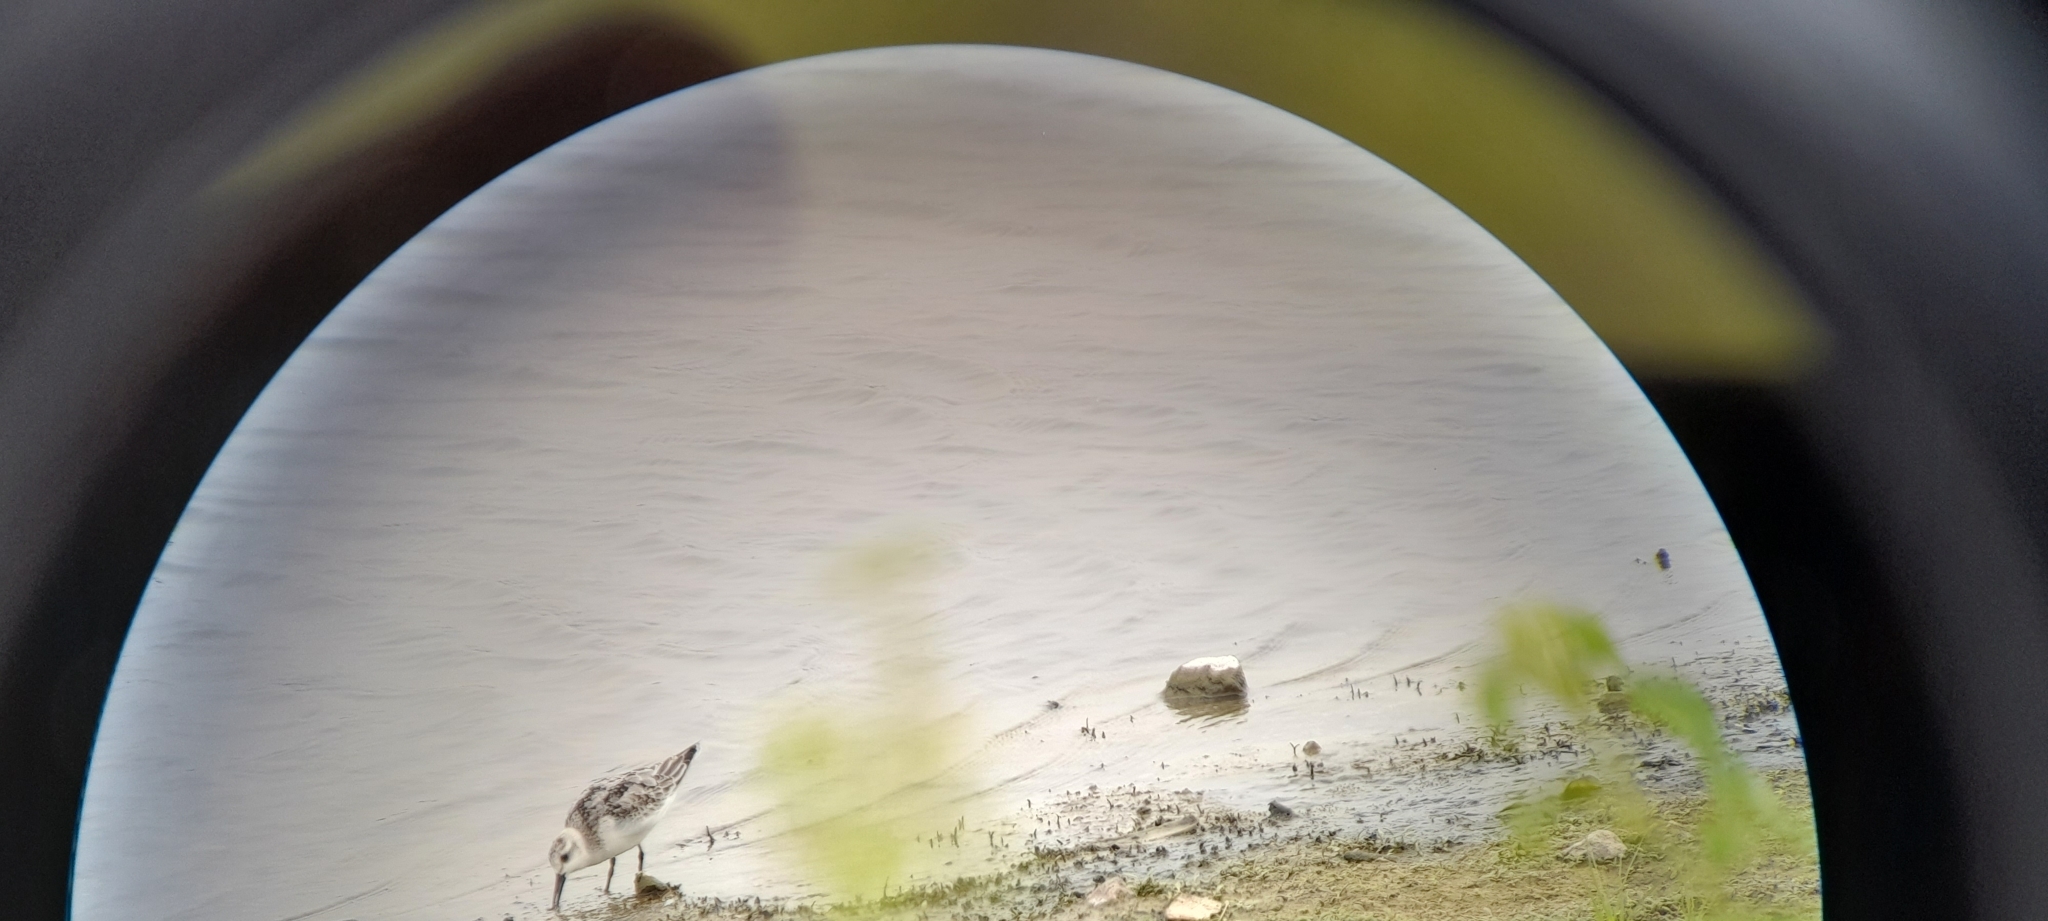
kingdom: Animalia
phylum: Chordata
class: Aves
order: Charadriiformes
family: Scolopacidae
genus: Calidris
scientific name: Calidris alba
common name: Sanderling
